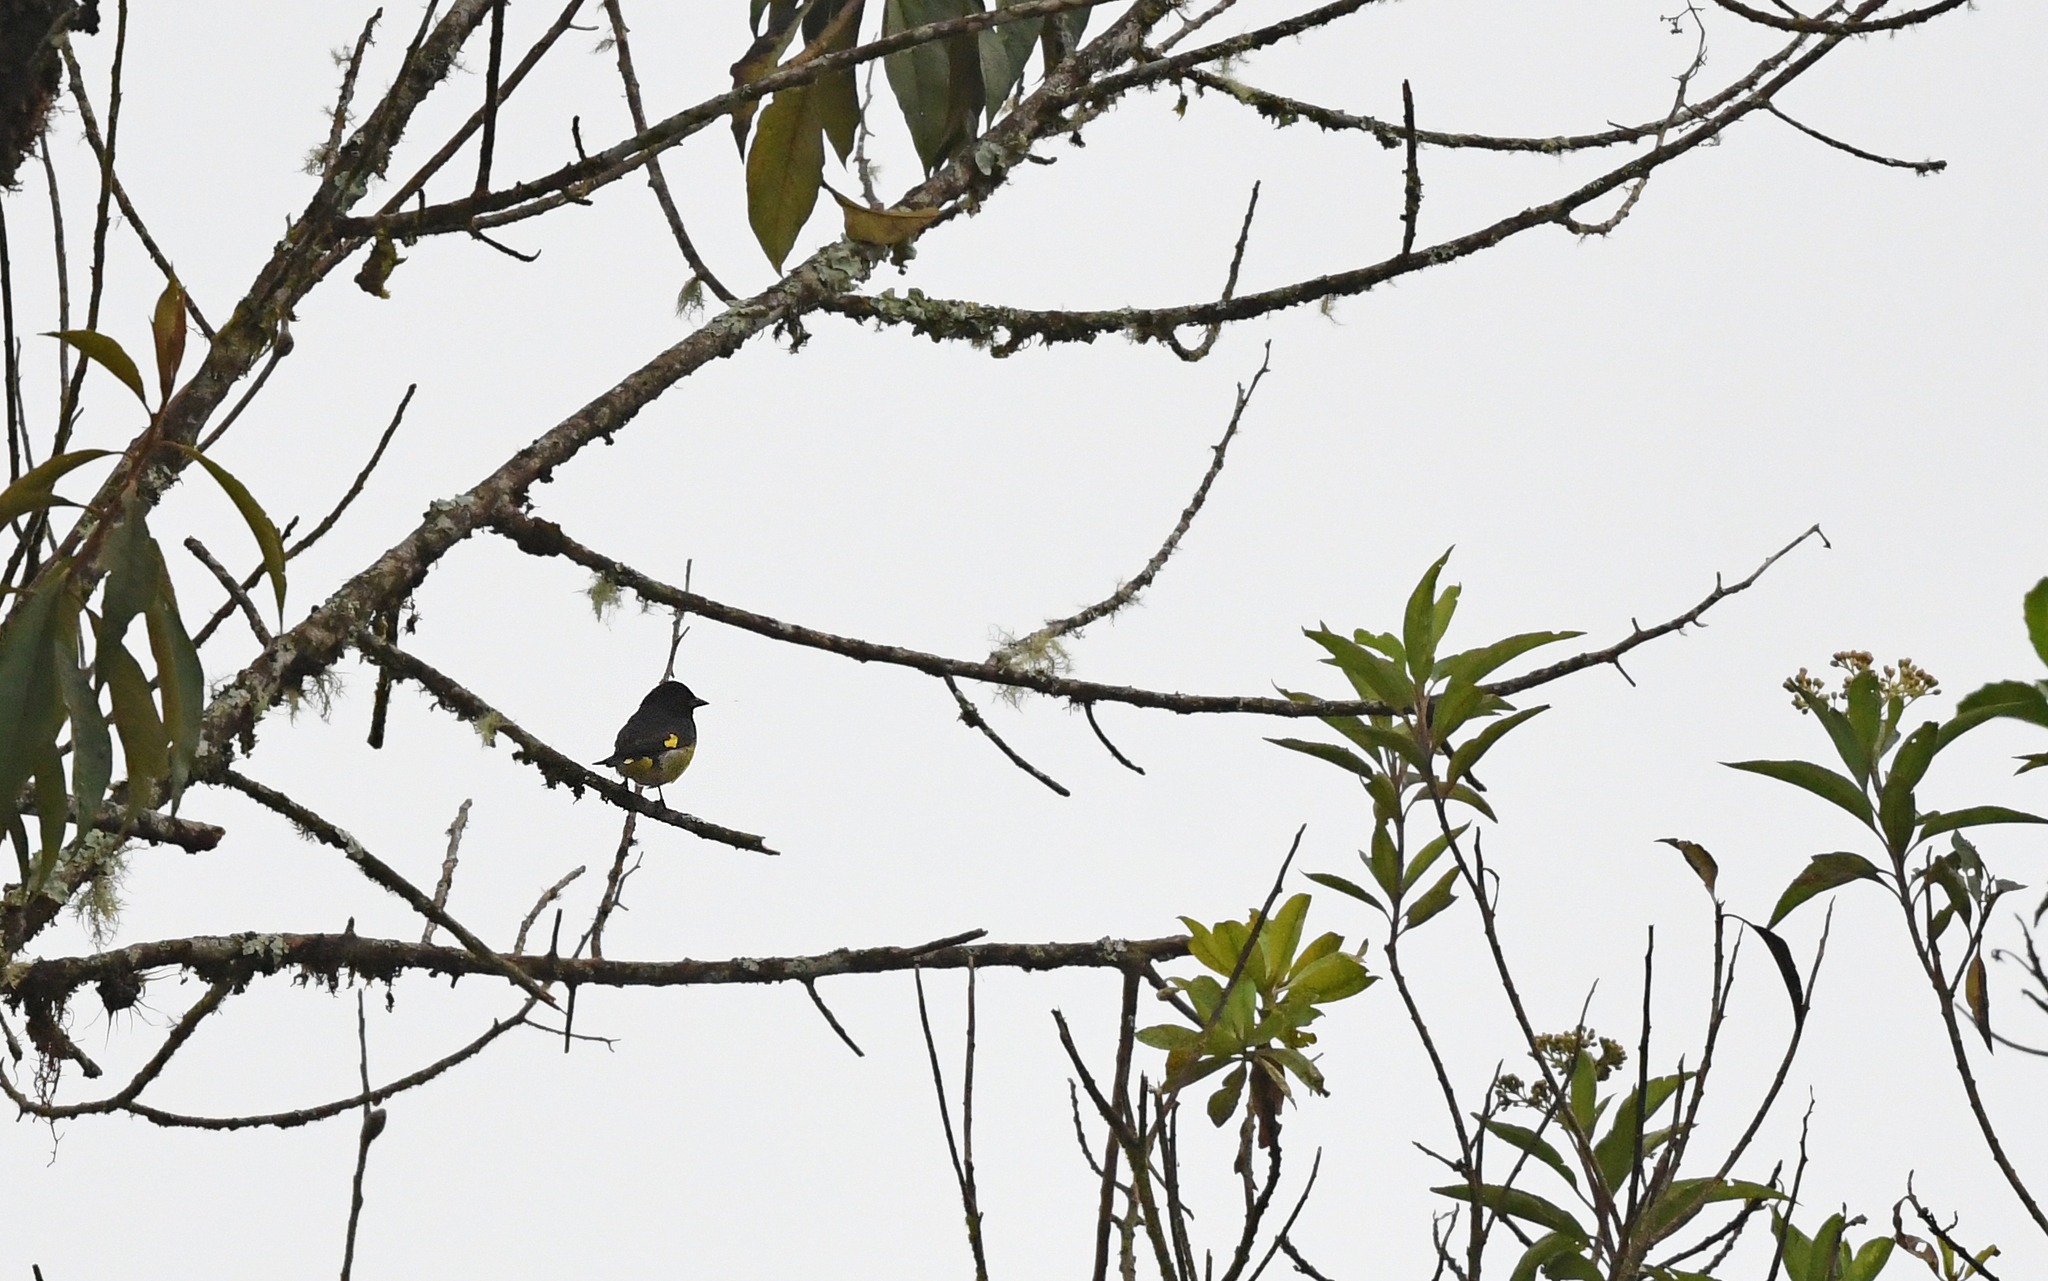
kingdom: Animalia
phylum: Chordata
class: Aves
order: Passeriformes
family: Fringillidae
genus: Spinus
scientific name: Spinus xanthogastrus
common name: Yellow-bellied siskin
